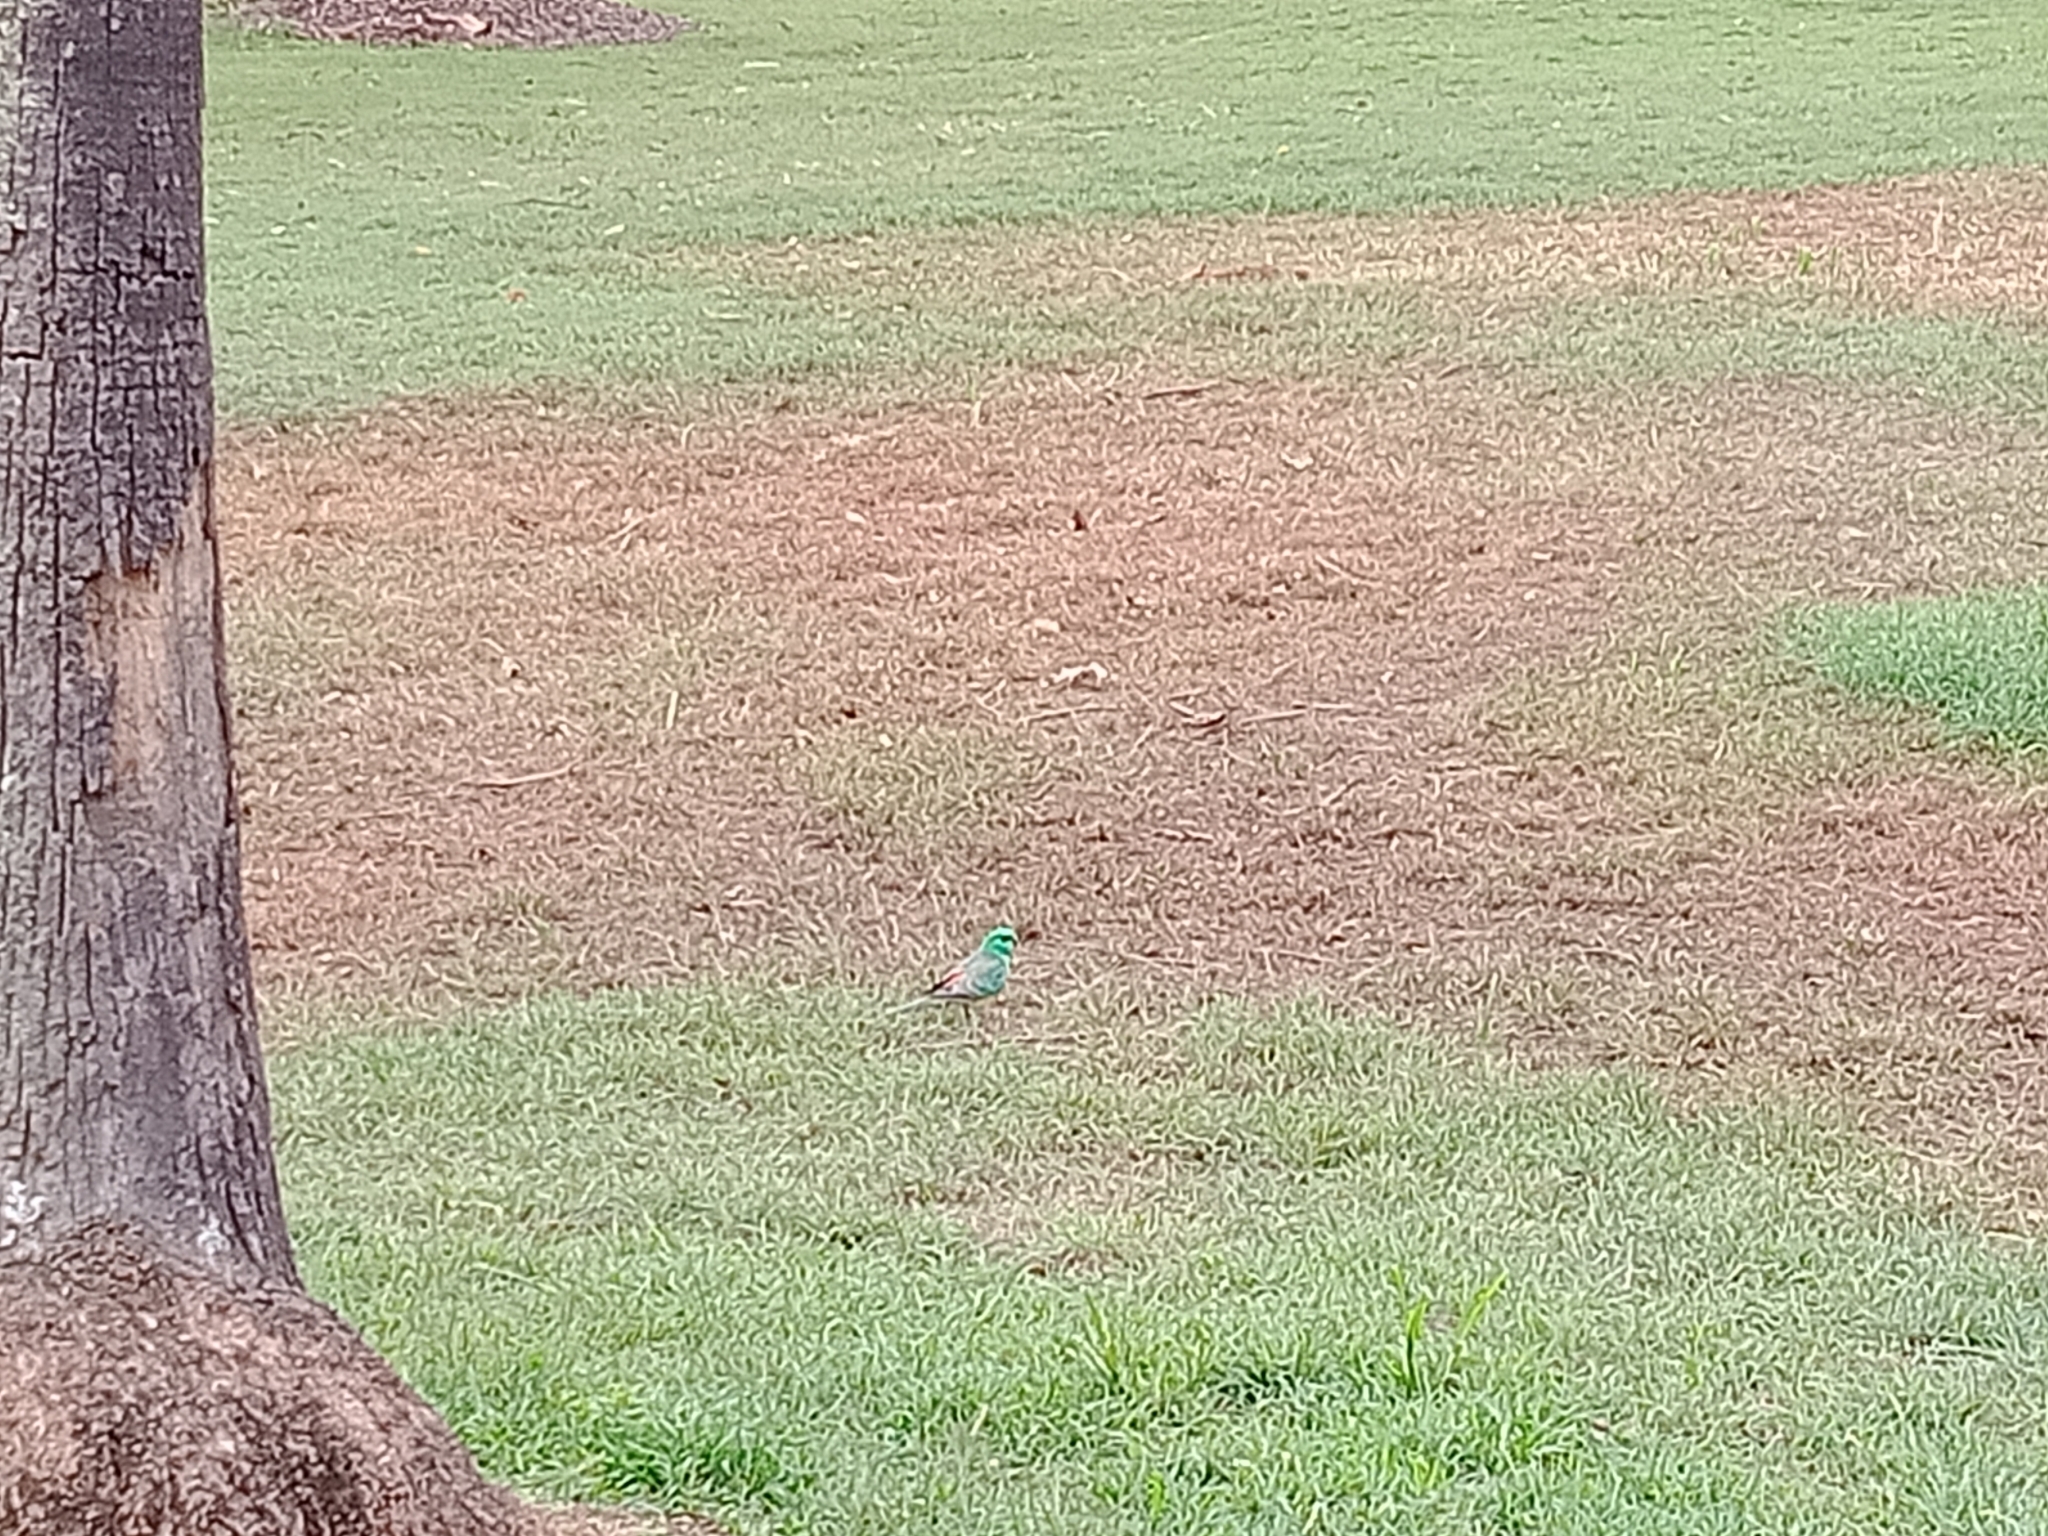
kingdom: Animalia
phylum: Chordata
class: Aves
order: Psittaciformes
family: Psittacidae
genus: Psephotus
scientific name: Psephotus haematonotus
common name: Red-rumped parrot
